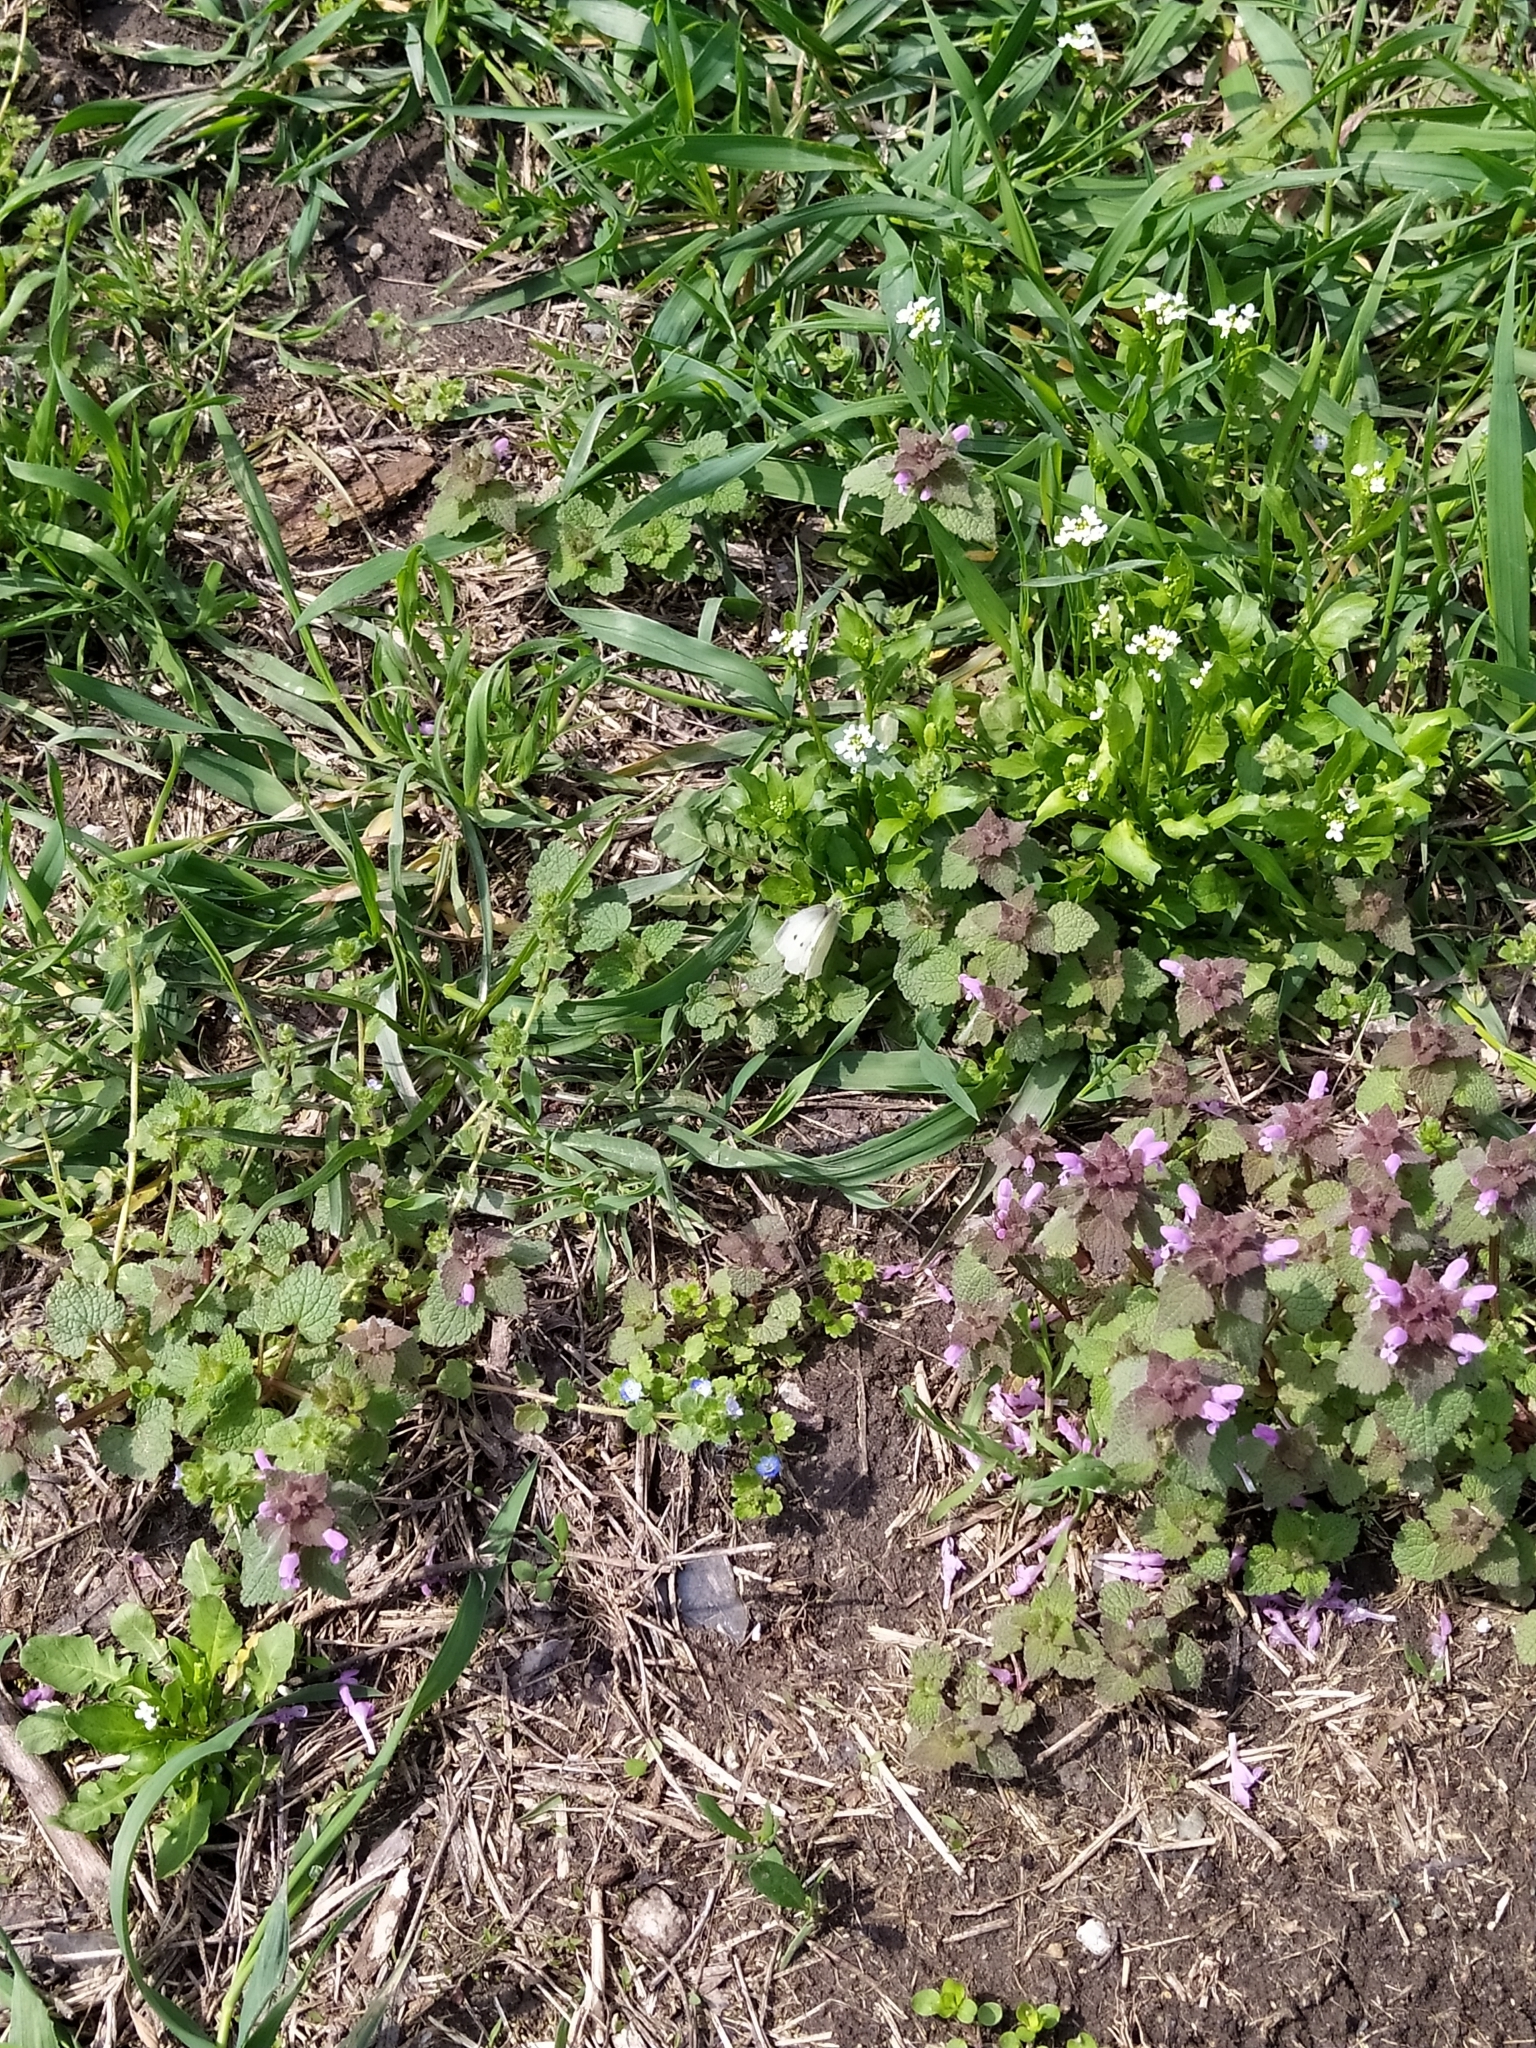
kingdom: Animalia
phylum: Arthropoda
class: Insecta
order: Lepidoptera
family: Pieridae
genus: Pieris
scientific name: Pieris rapae
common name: Small white
